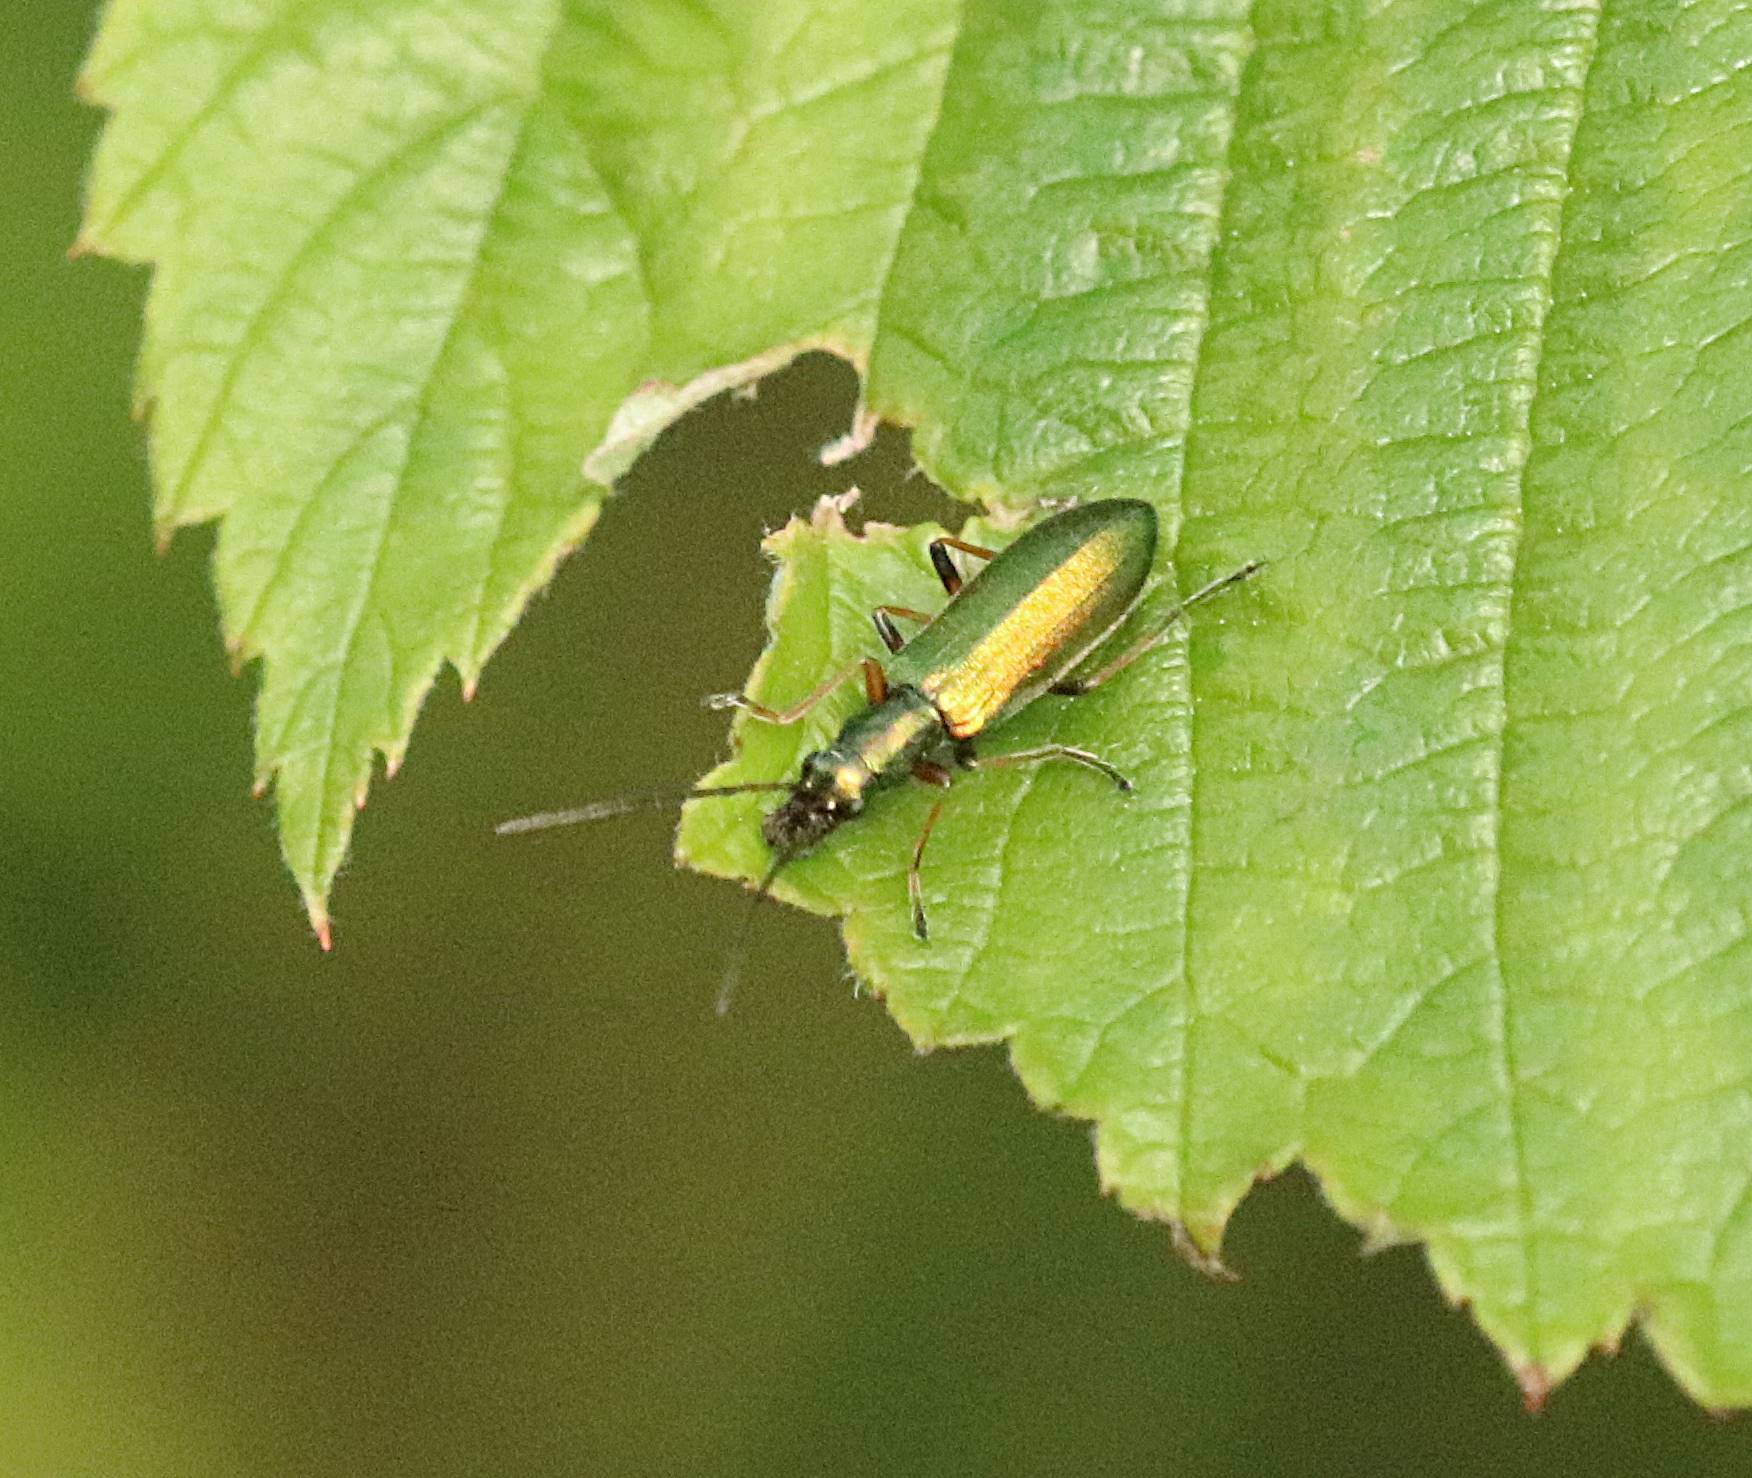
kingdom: Animalia
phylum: Arthropoda
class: Insecta
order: Coleoptera
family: Oedemeridae
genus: Chrysanthia
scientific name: Chrysanthia geniculata
